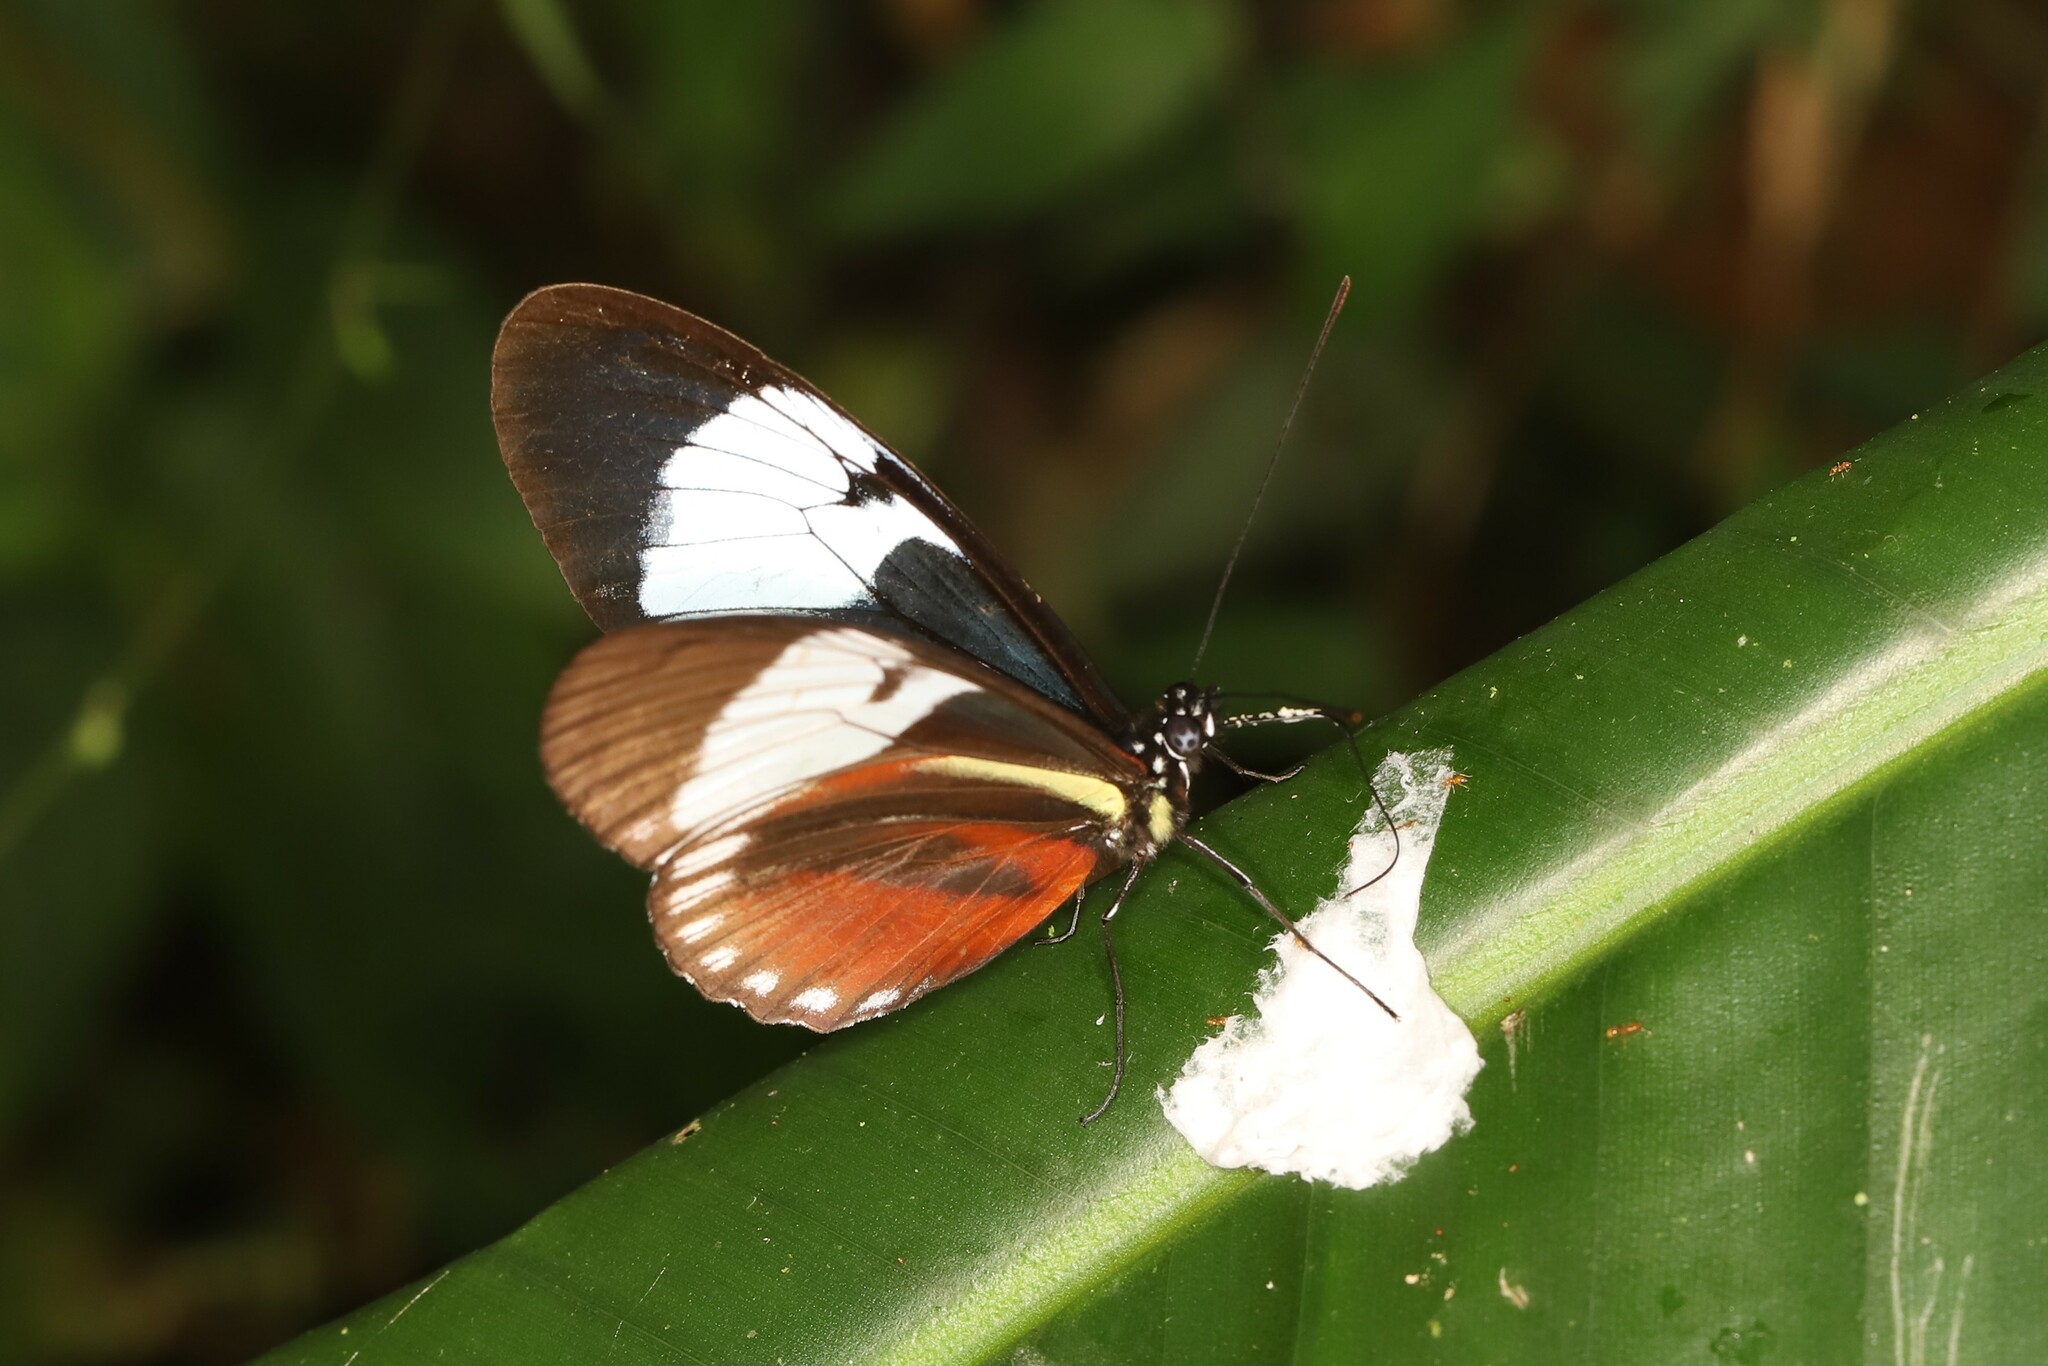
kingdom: Animalia
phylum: Arthropoda
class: Insecta
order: Lepidoptera
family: Nymphalidae
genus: Heliconius
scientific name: Heliconius cydno
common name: Cydno longwing
